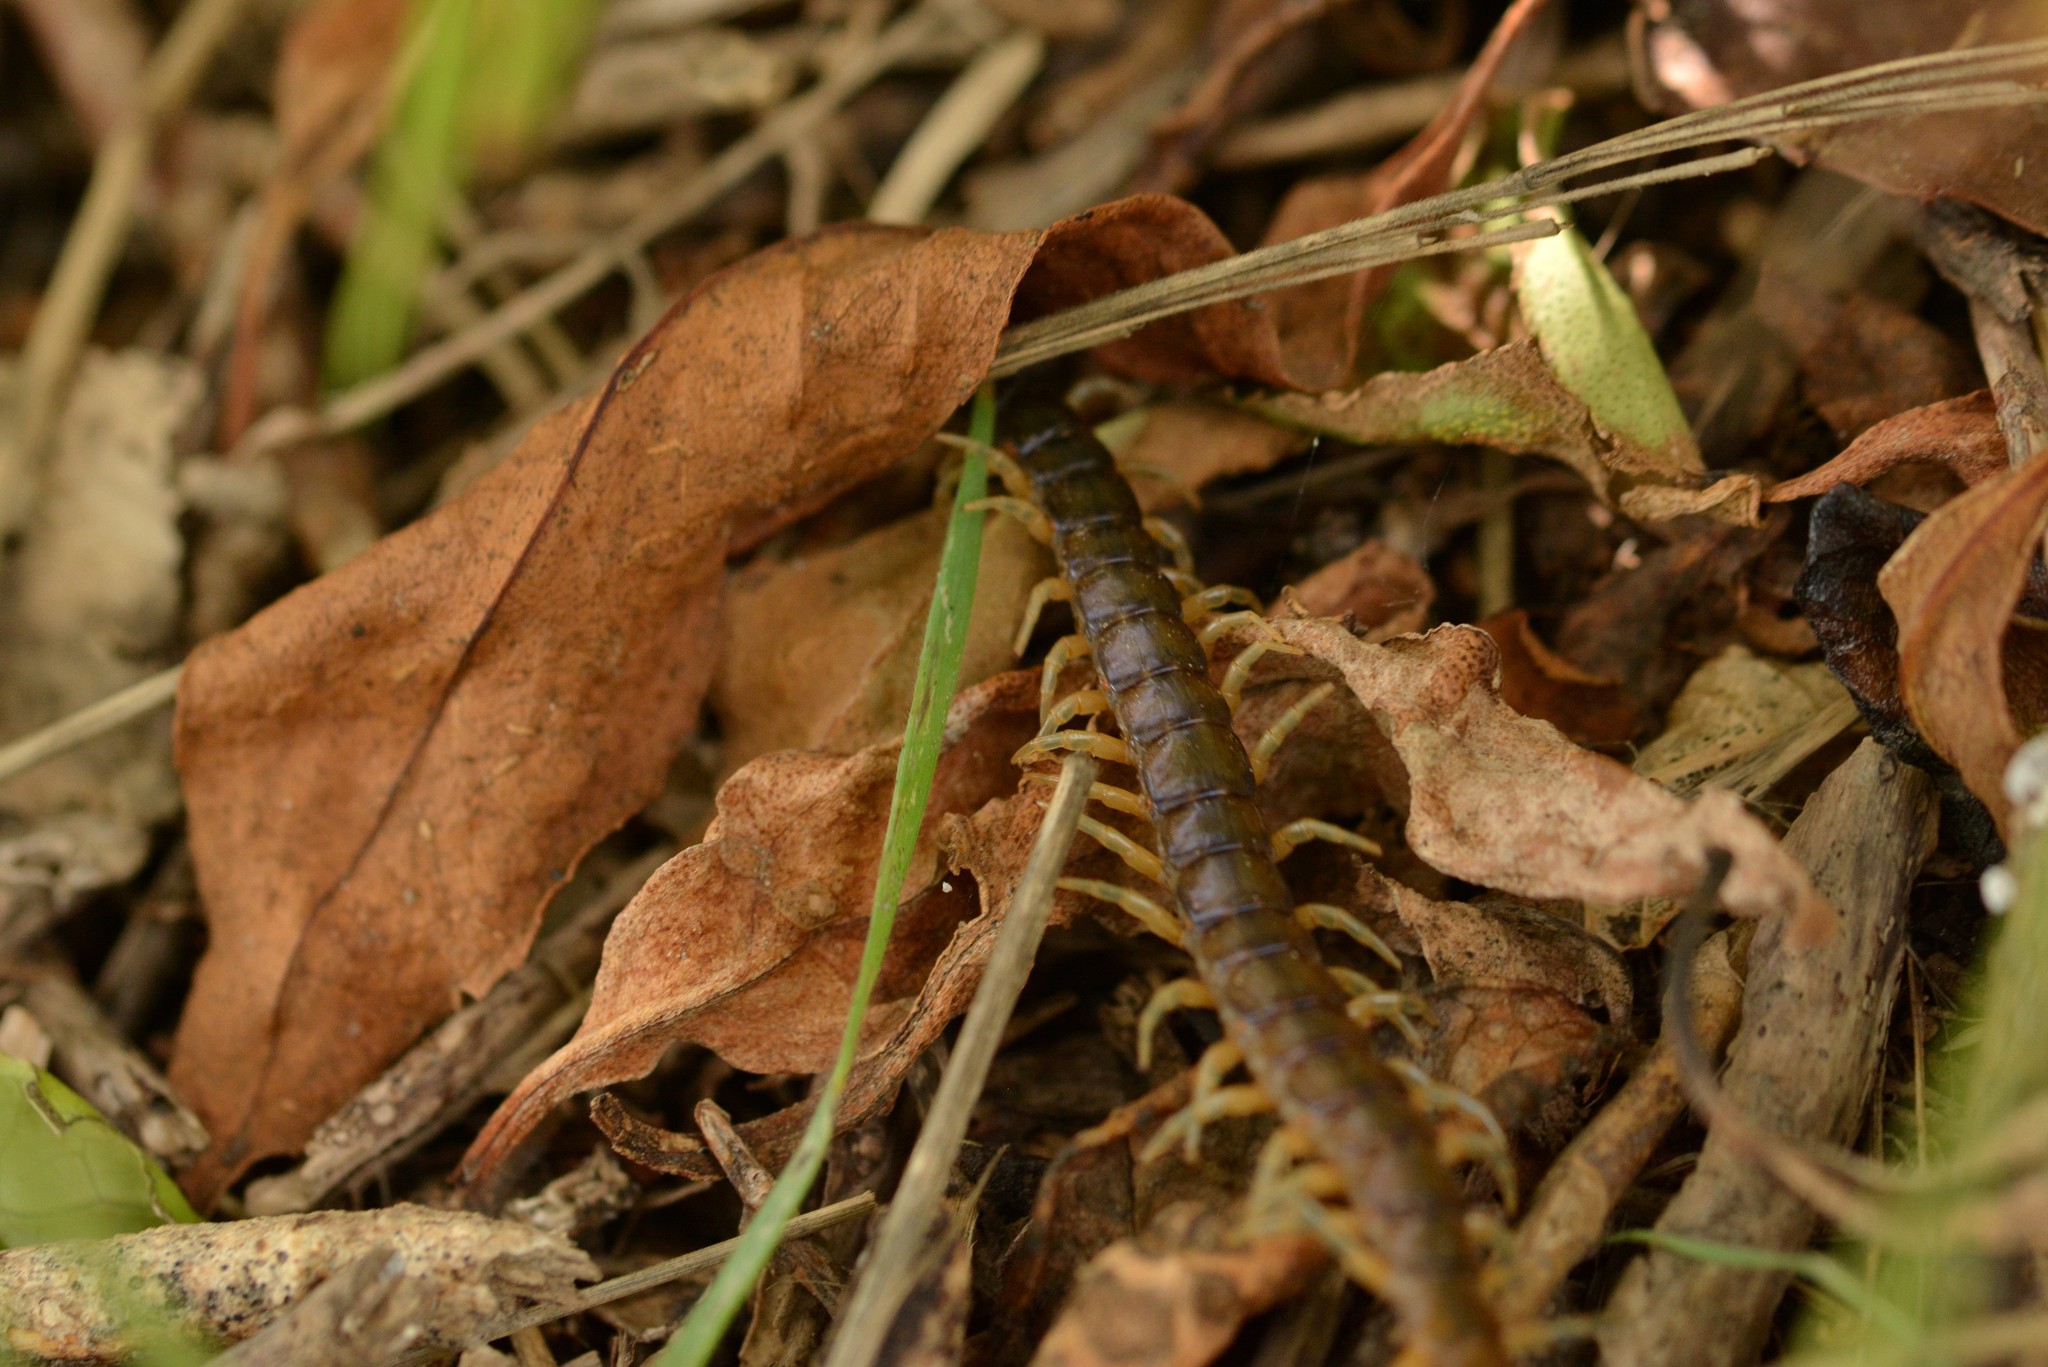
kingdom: Animalia
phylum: Arthropoda
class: Chilopoda
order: Scolopendromorpha
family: Scolopendridae
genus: Cormocephalus
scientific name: Cormocephalus rubriceps
